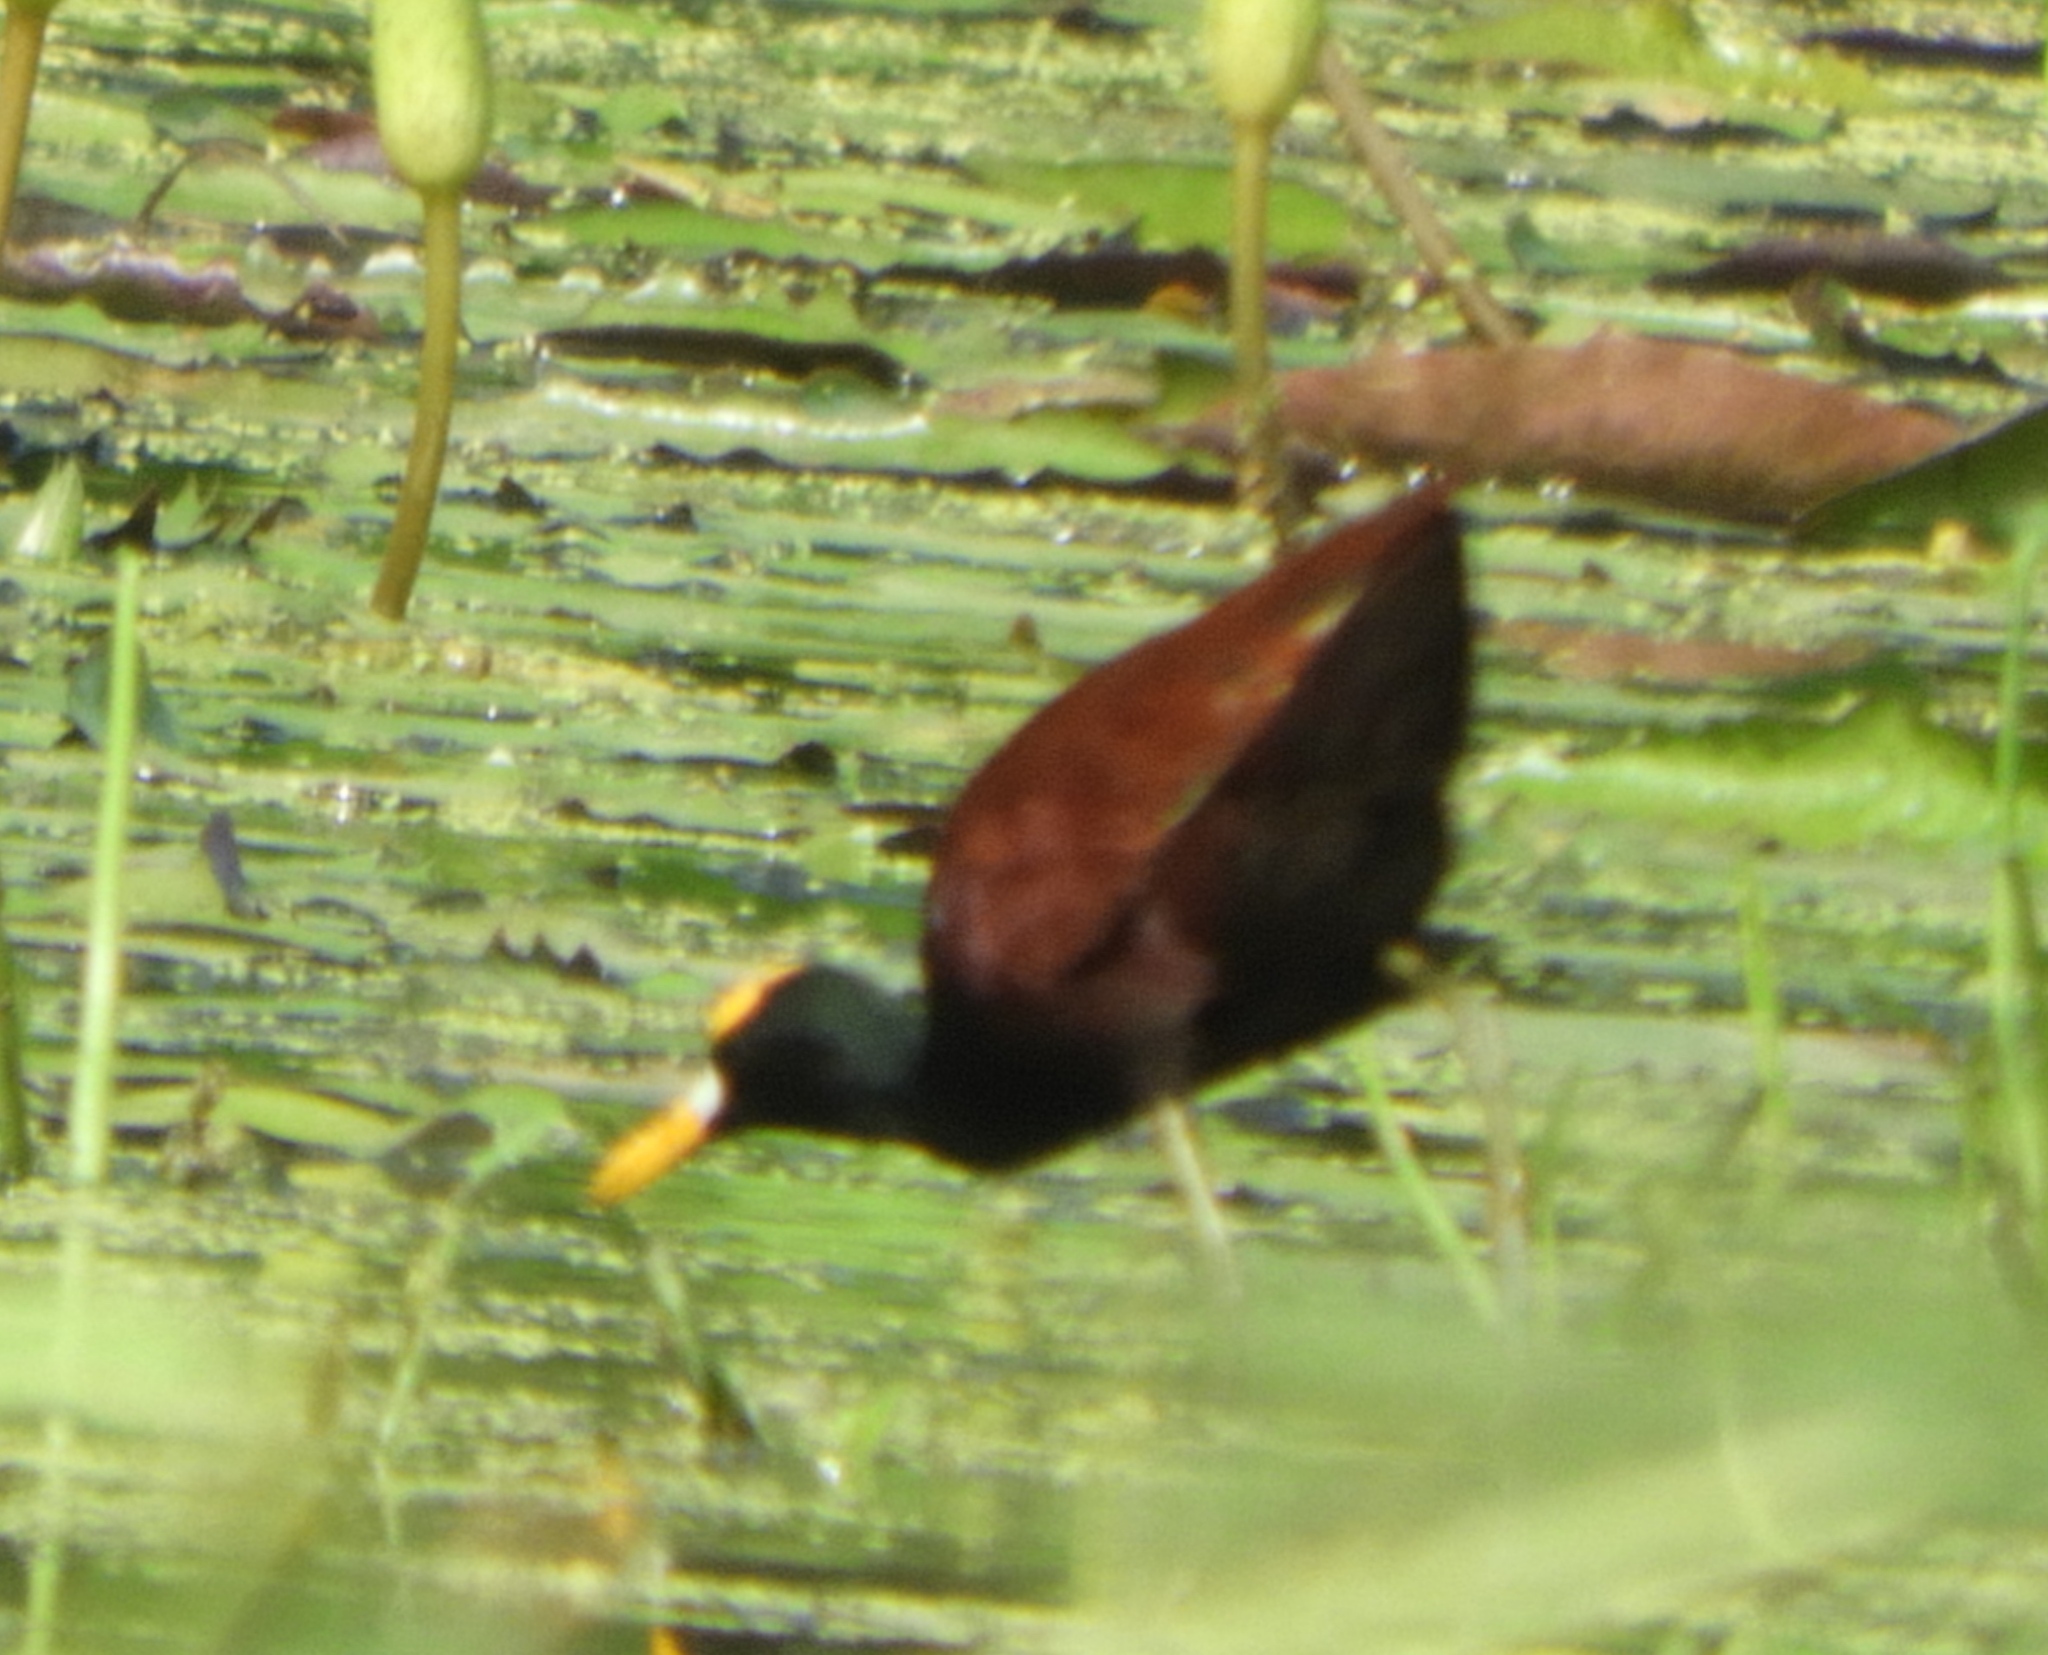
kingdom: Animalia
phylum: Chordata
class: Aves
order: Charadriiformes
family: Jacanidae
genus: Jacana
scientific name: Jacana spinosa
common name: Northern jacana
